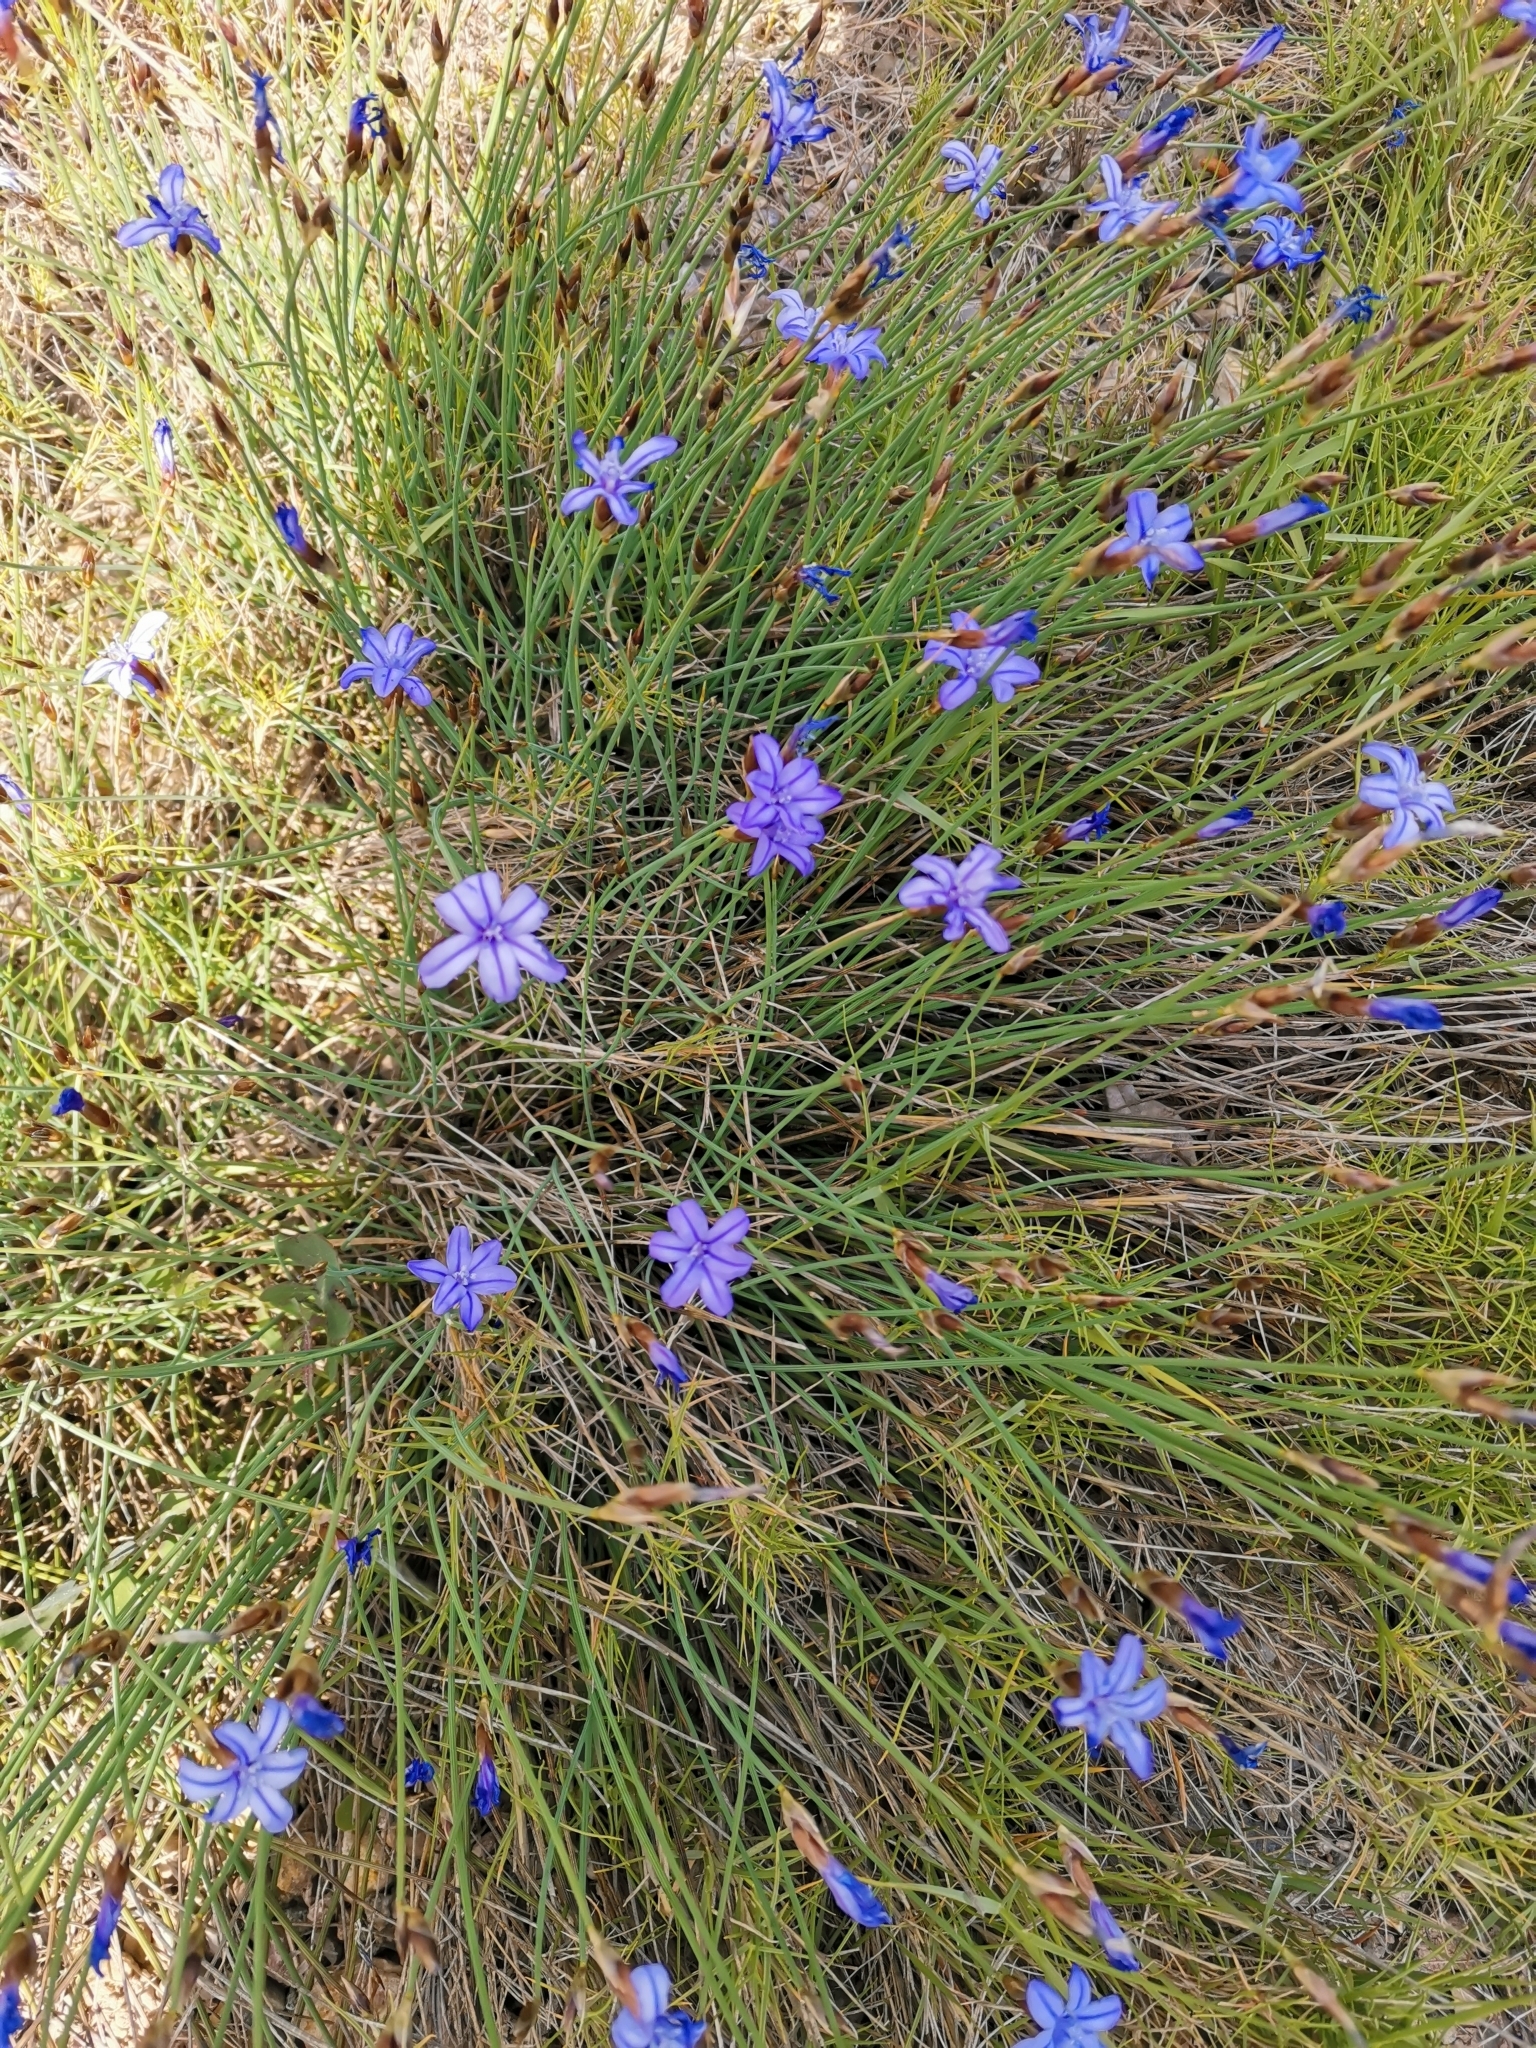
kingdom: Plantae
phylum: Tracheophyta
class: Liliopsida
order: Asparagales
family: Asparagaceae
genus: Aphyllanthes
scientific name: Aphyllanthes monspeliensis
